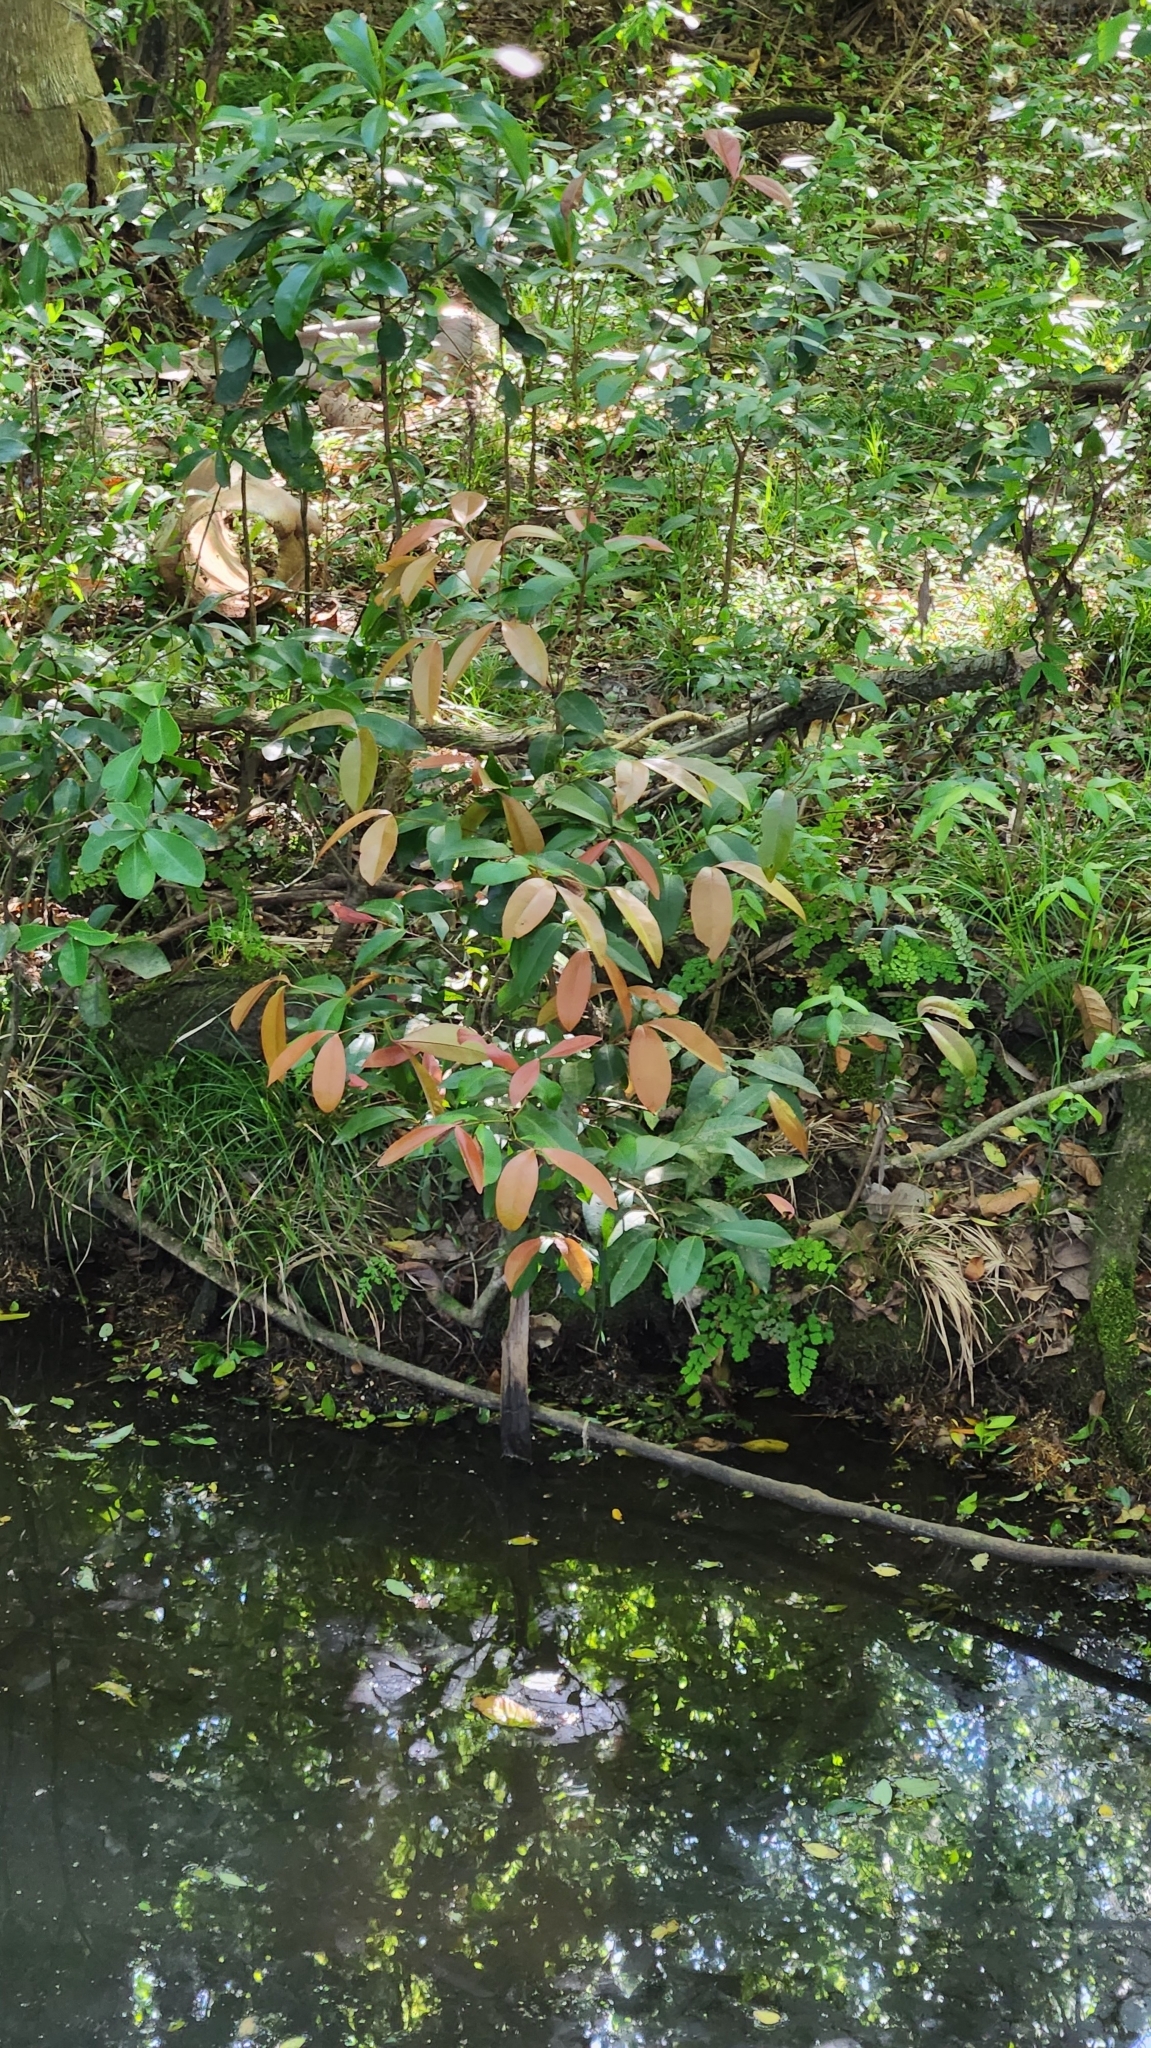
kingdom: Plantae
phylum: Tracheophyta
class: Magnoliopsida
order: Myrtales
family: Myrtaceae
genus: Myrcia
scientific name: Myrcia glomerata
